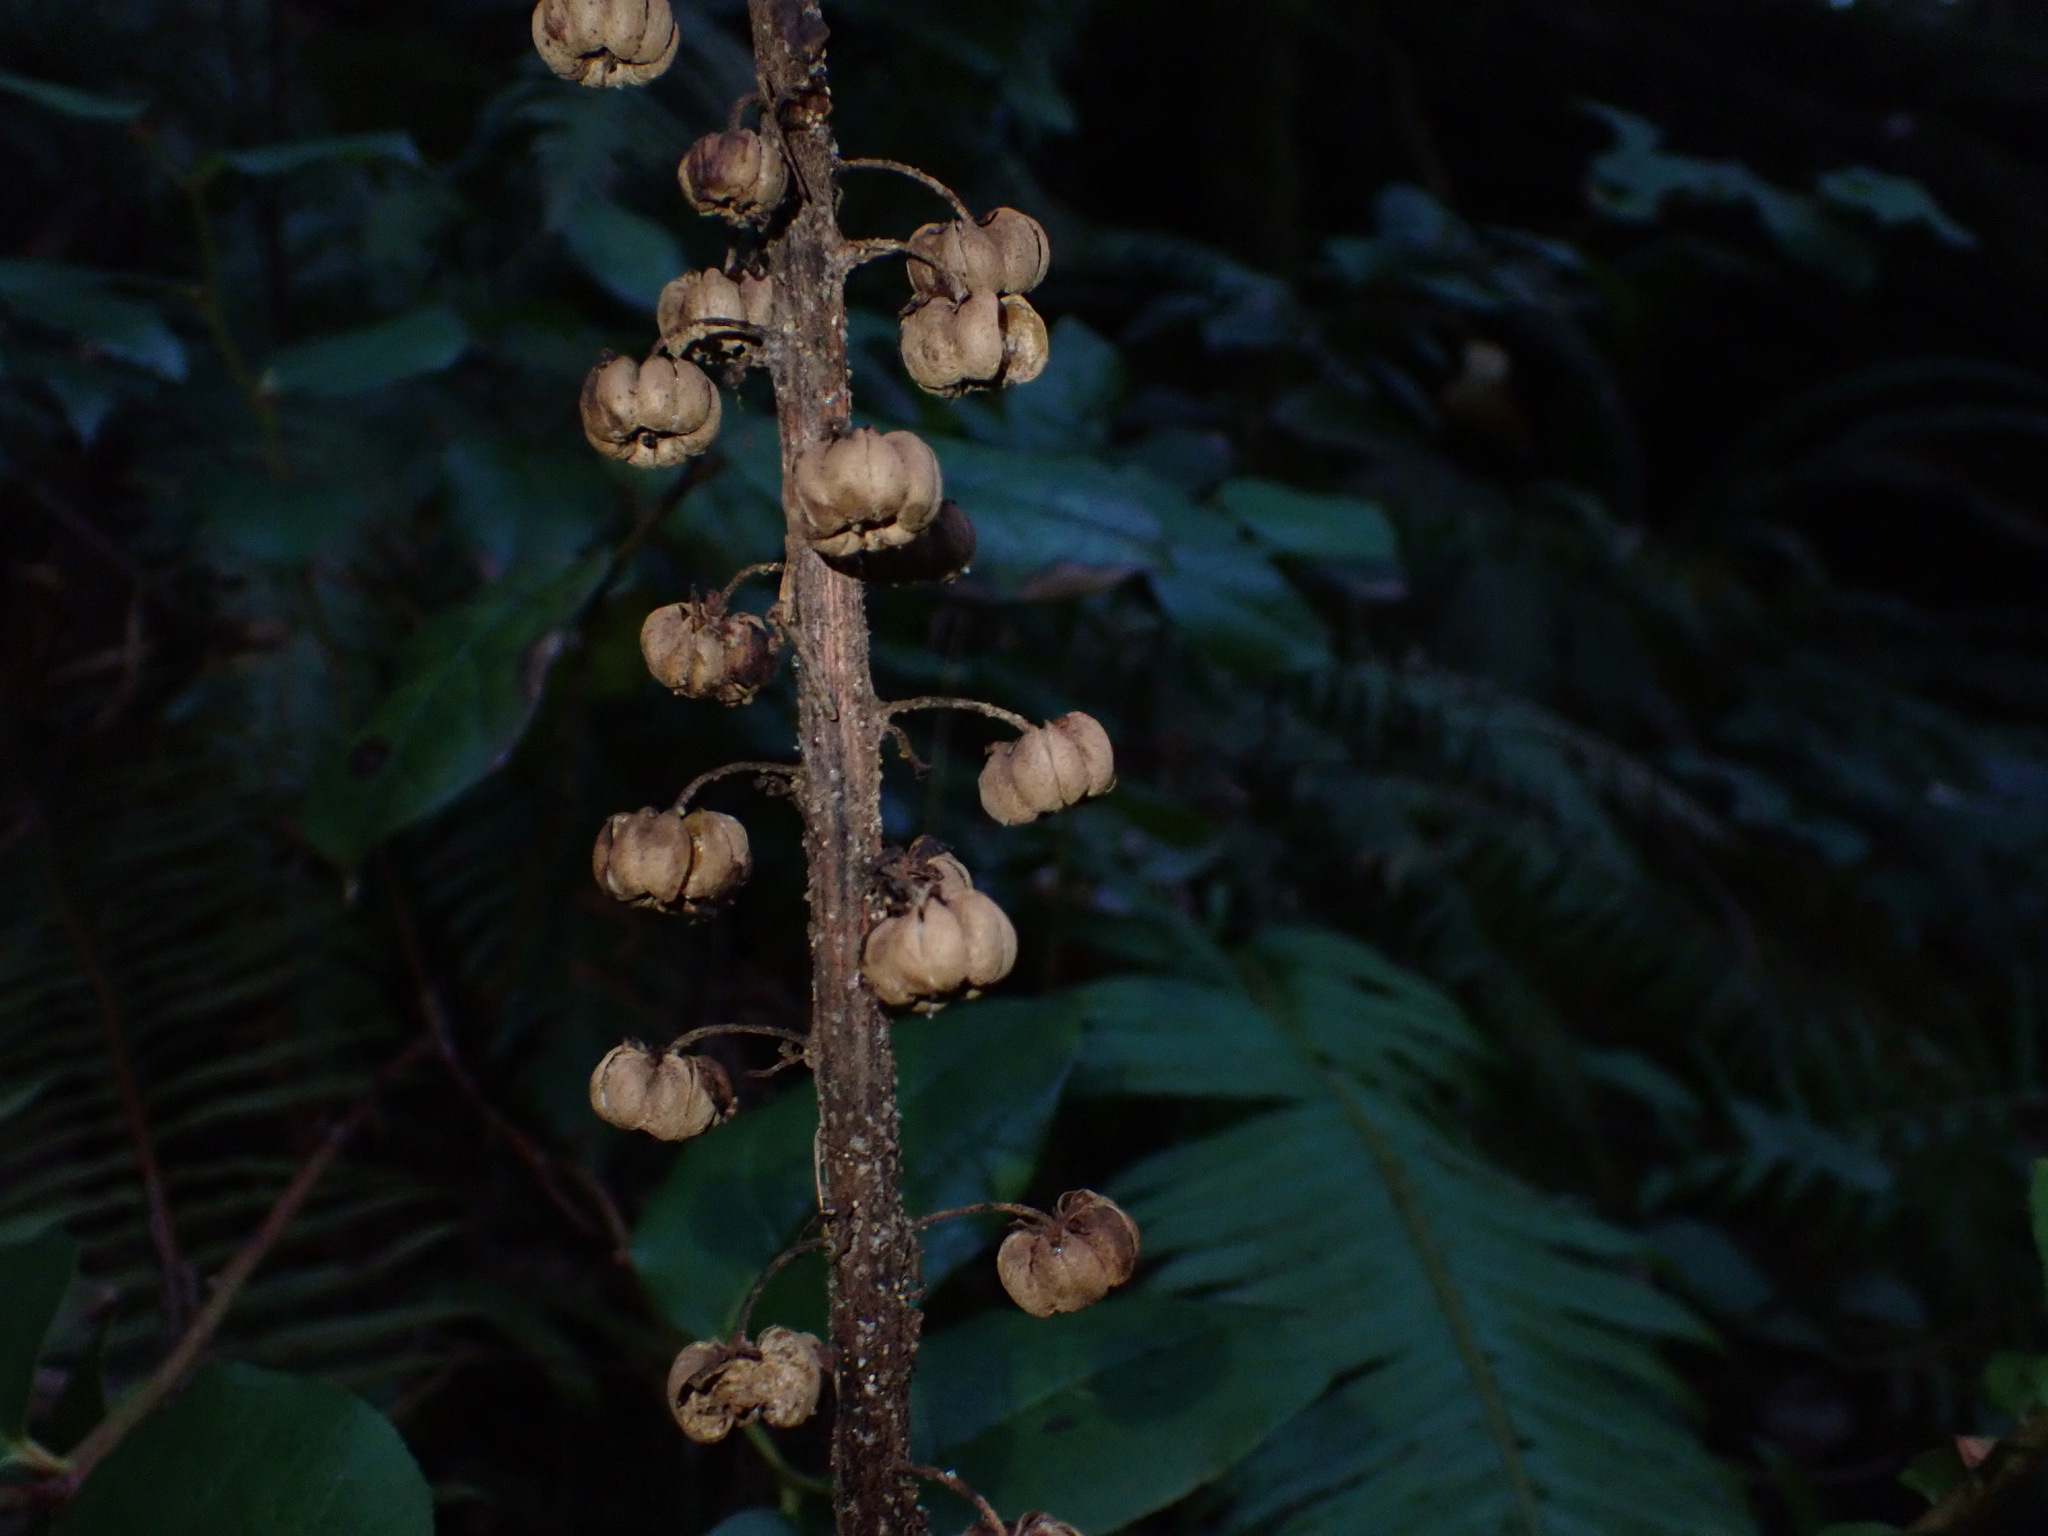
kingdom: Plantae
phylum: Tracheophyta
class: Magnoliopsida
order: Ericales
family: Ericaceae
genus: Pterospora
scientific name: Pterospora andromedea
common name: Giant bird's-nest
